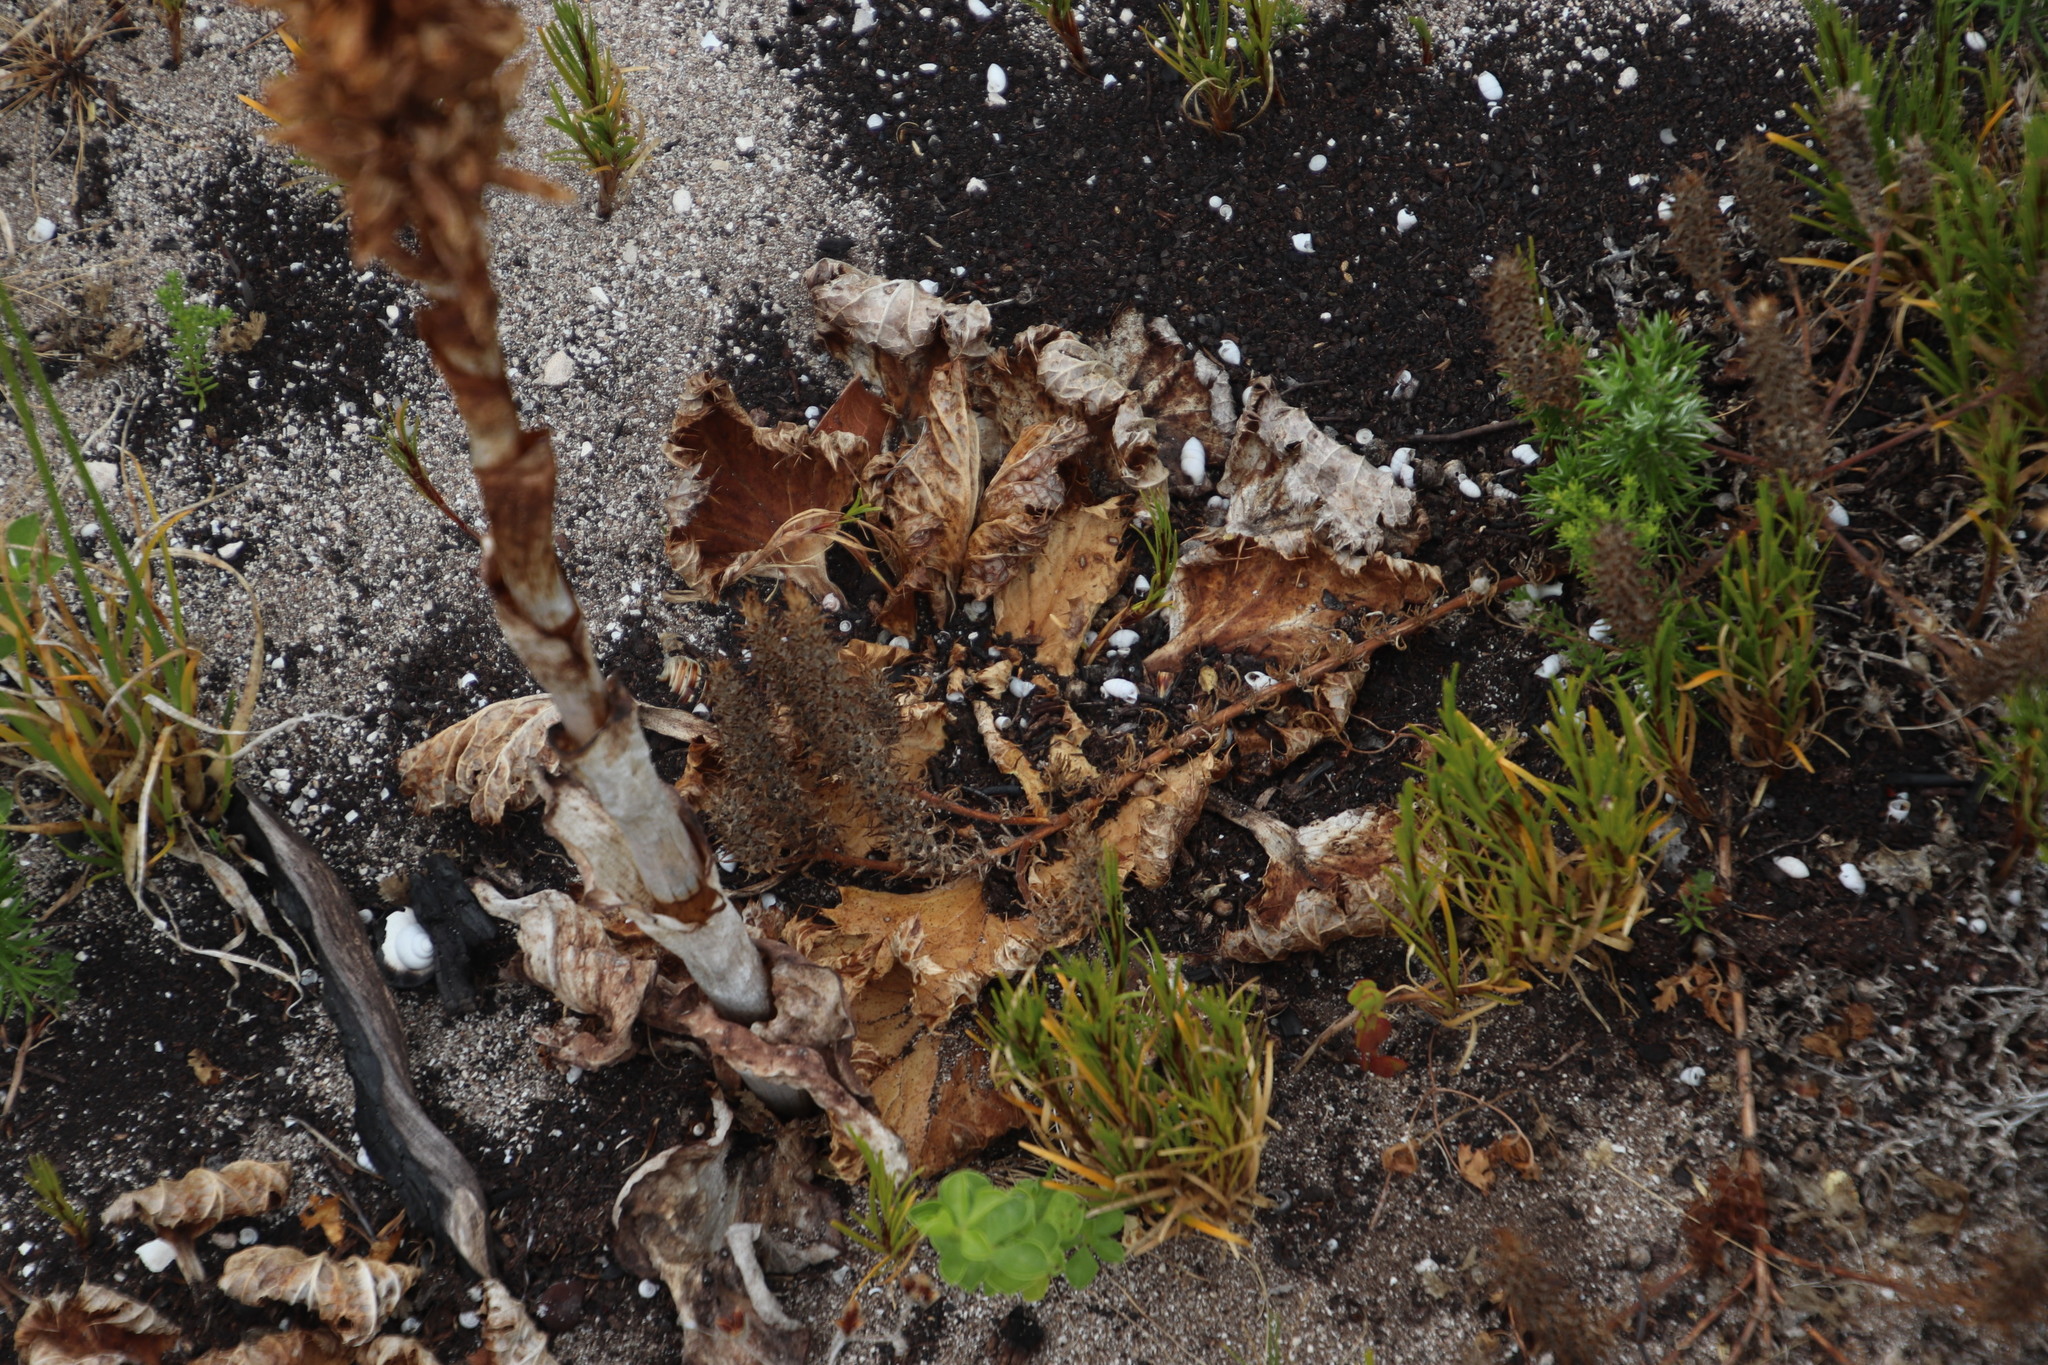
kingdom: Plantae
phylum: Tracheophyta
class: Magnoliopsida
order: Apiales
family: Apiaceae
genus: Arctopus
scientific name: Arctopus echinatus
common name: Platdoring
